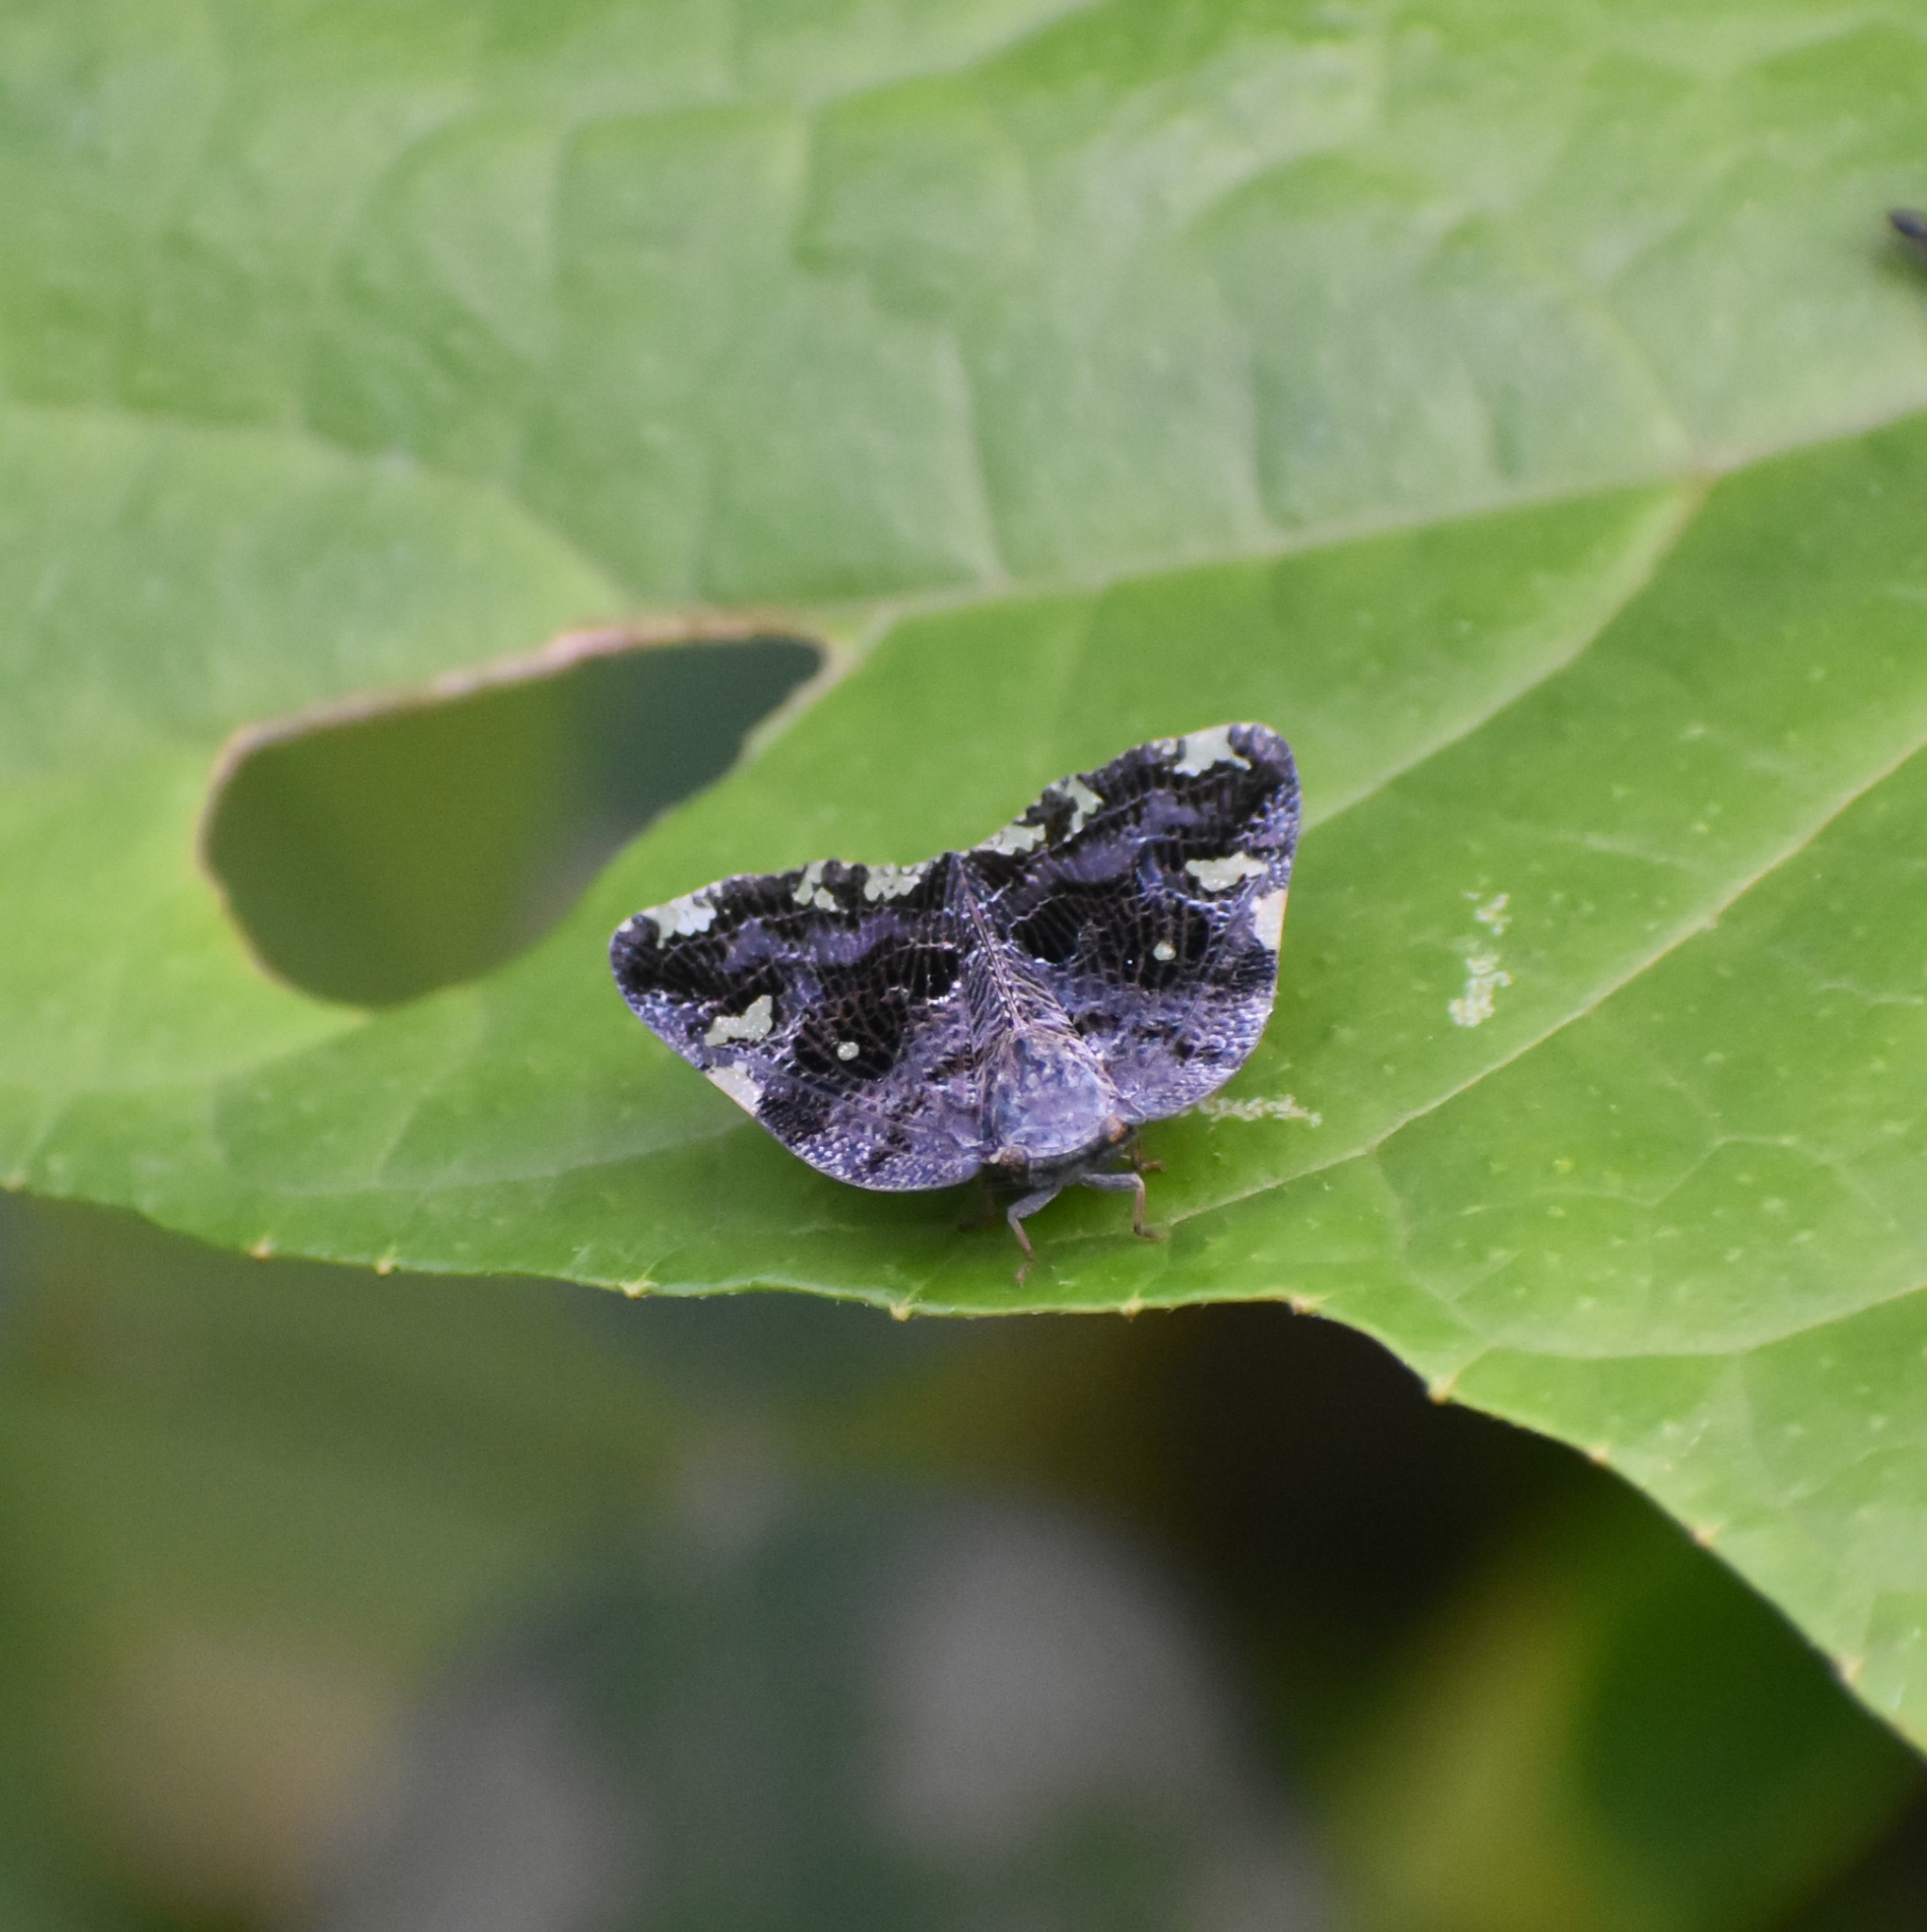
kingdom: Animalia
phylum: Arthropoda
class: Insecta
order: Hemiptera
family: Ricaniidae
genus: Ricania
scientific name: Ricania speculum
